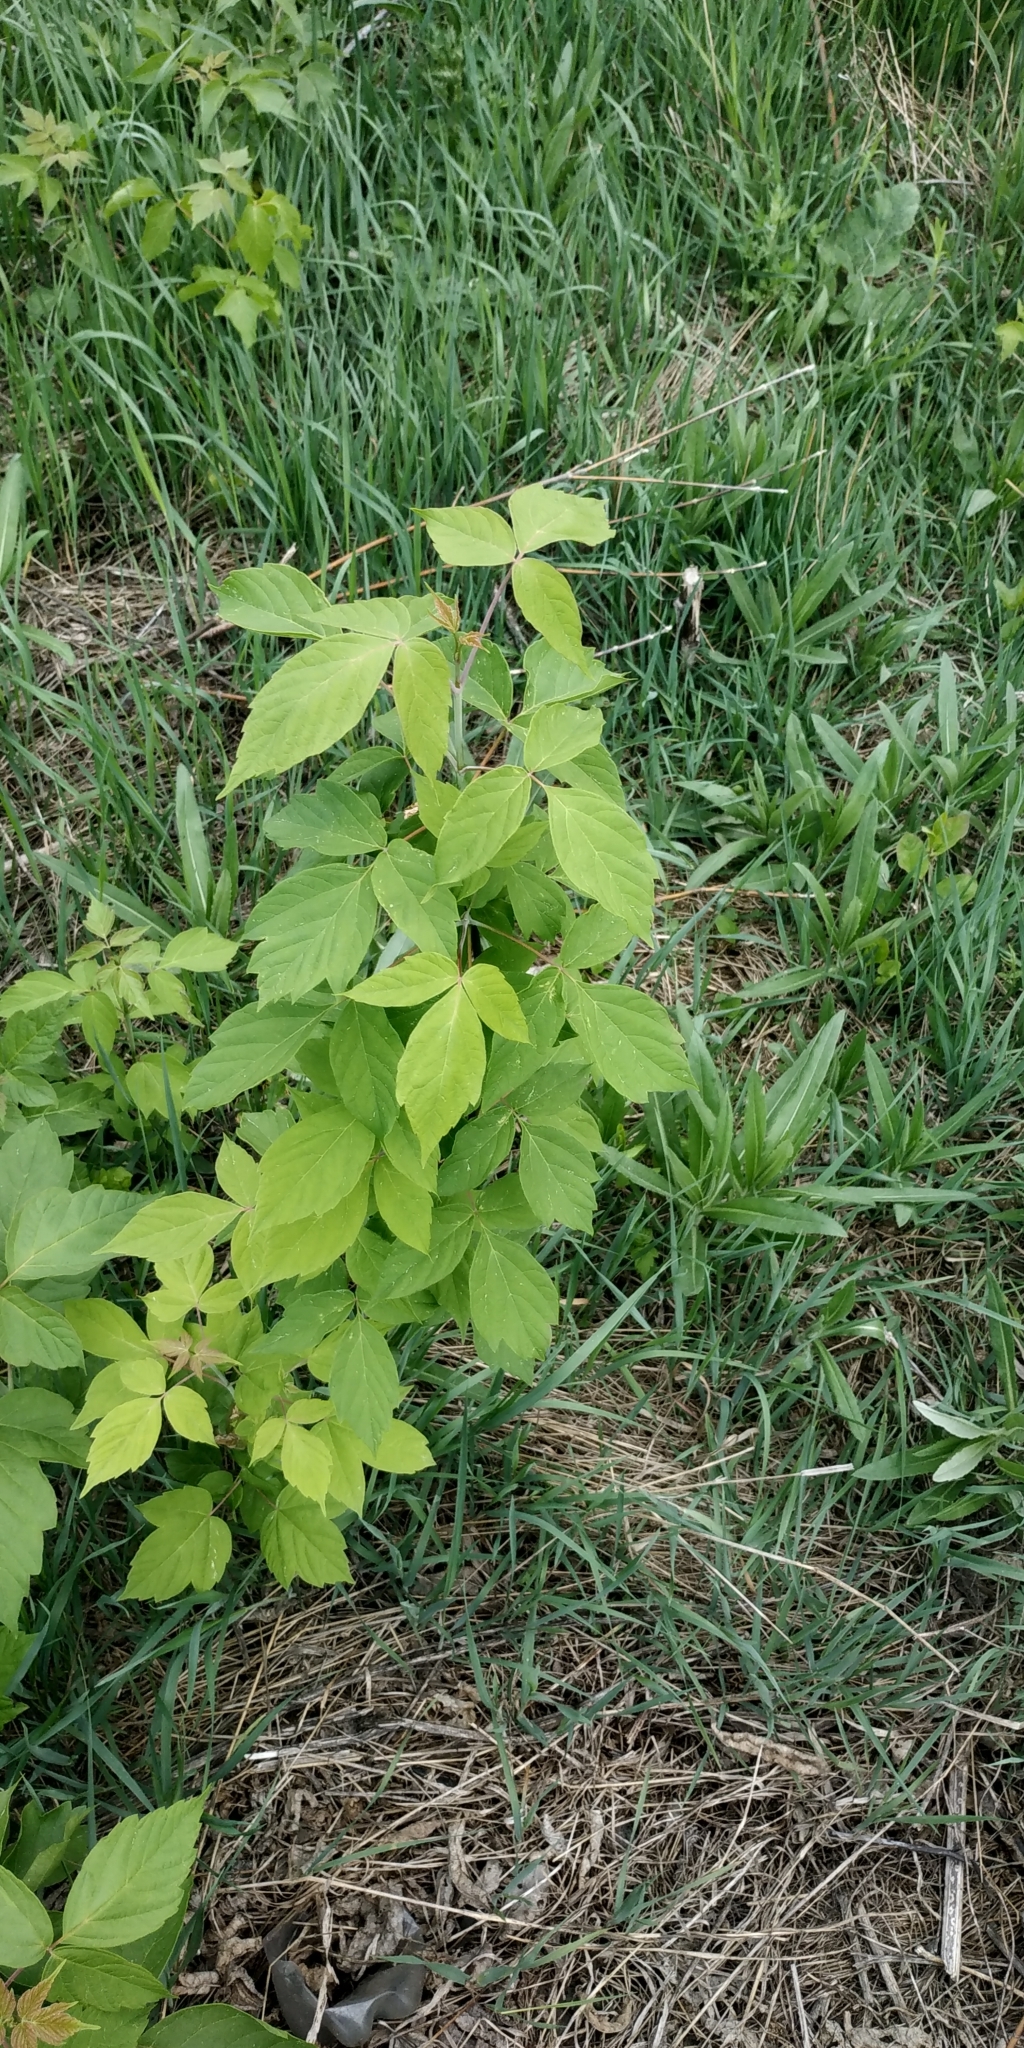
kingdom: Plantae
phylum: Tracheophyta
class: Magnoliopsida
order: Sapindales
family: Sapindaceae
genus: Acer
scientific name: Acer negundo
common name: Ashleaf maple
